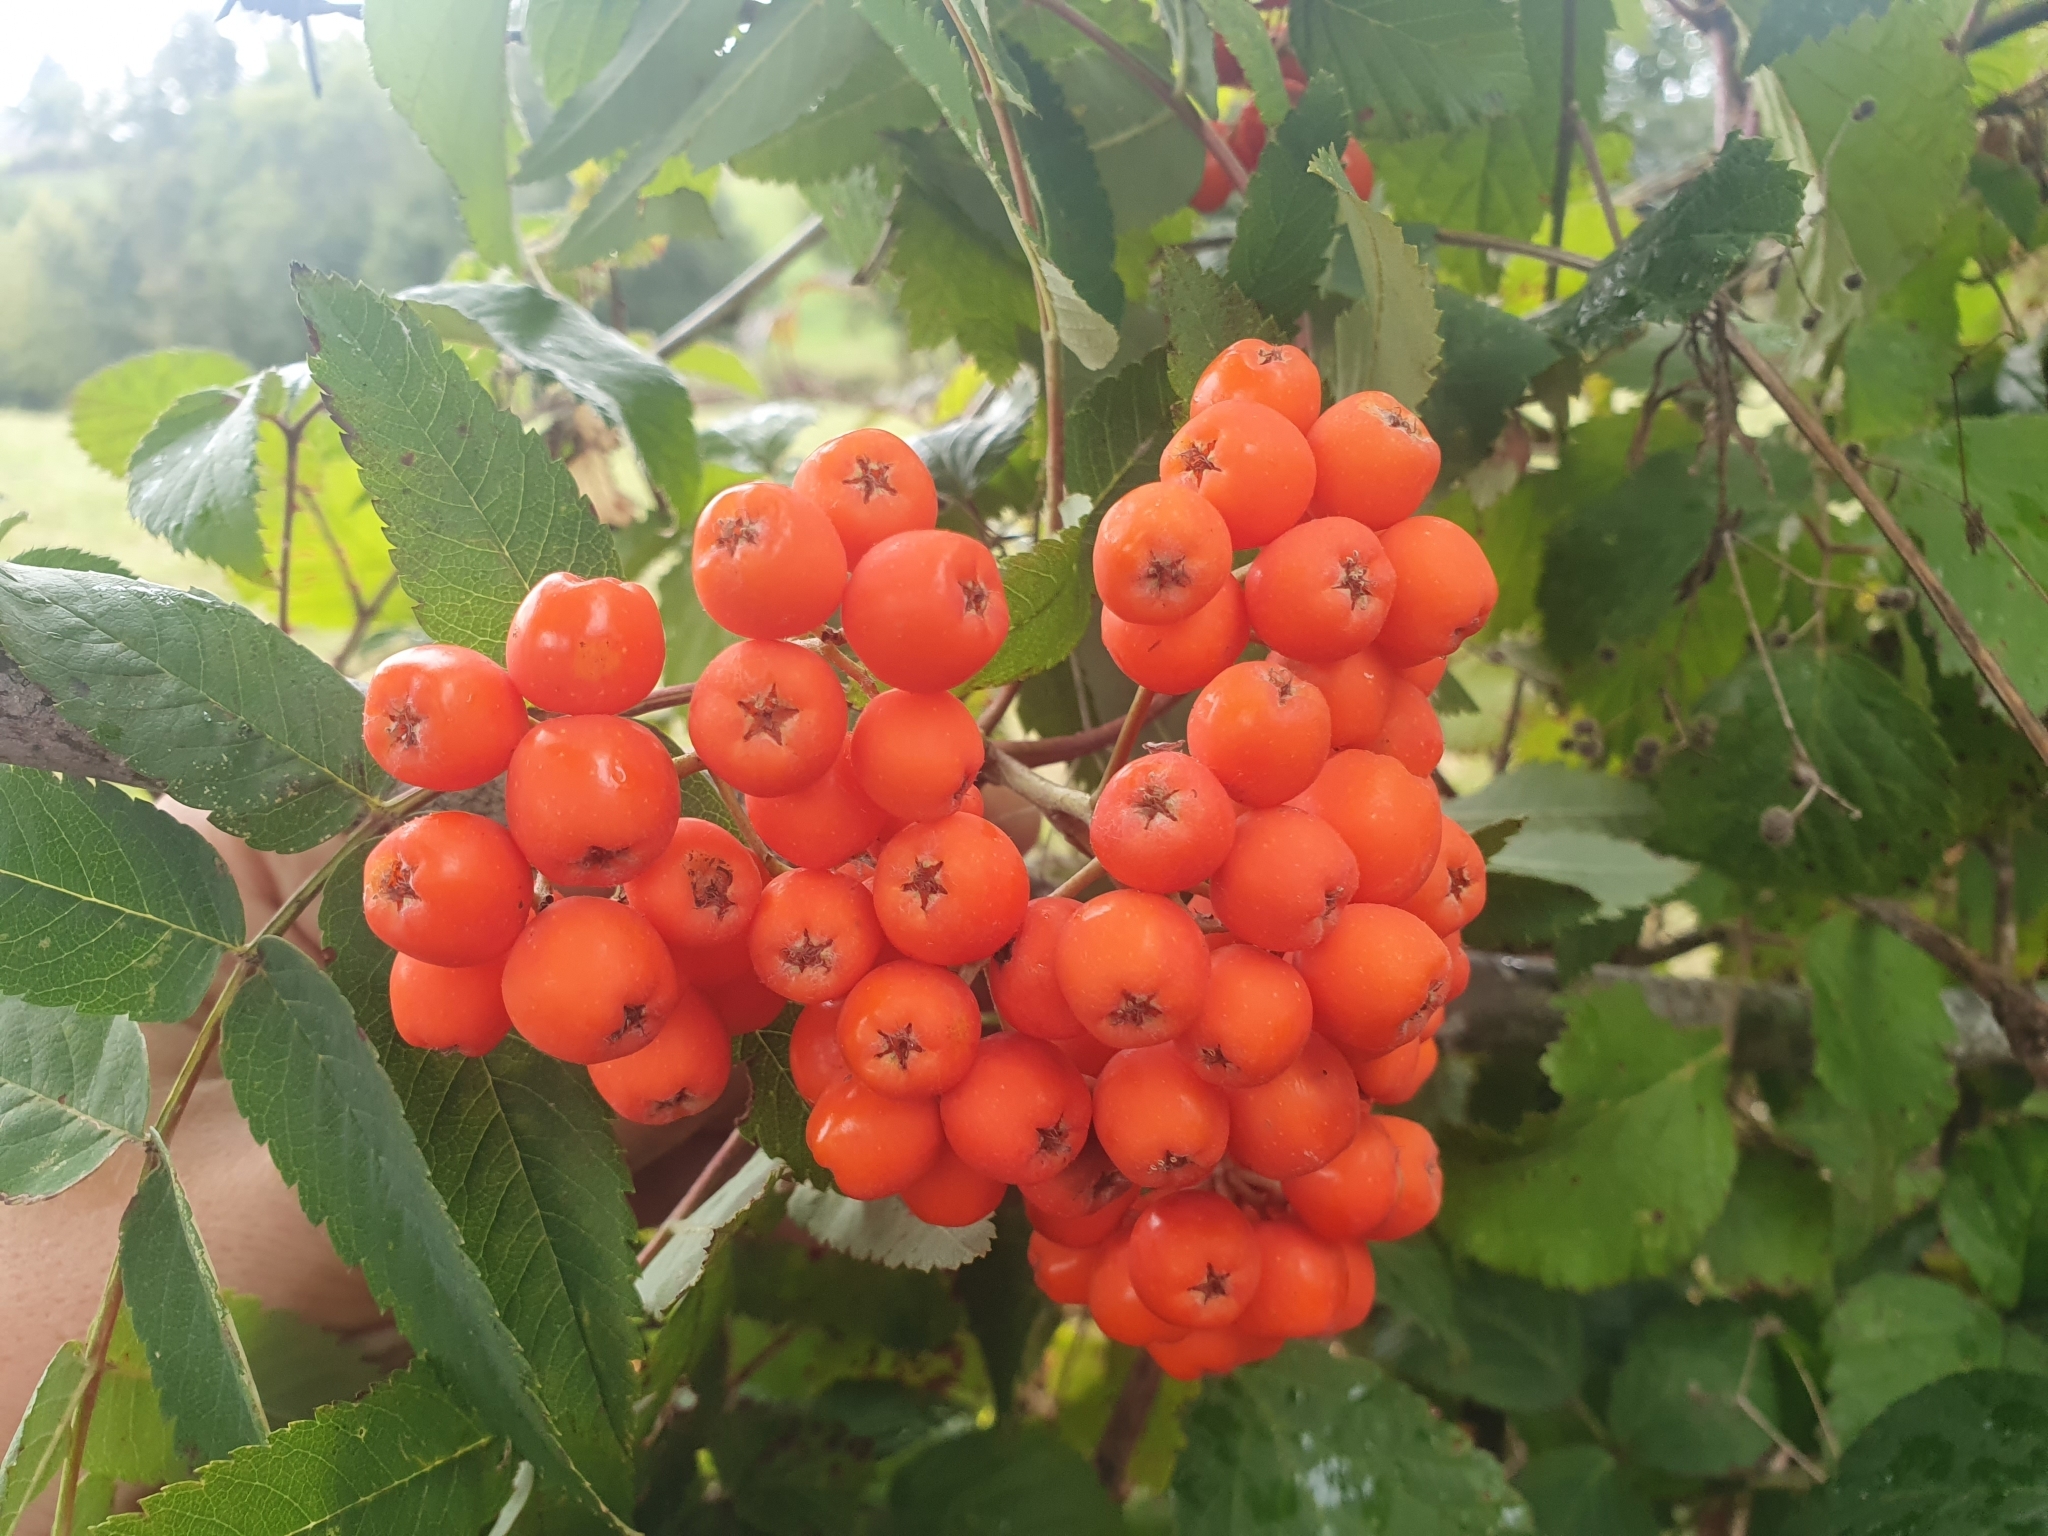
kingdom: Plantae
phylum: Tracheophyta
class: Magnoliopsida
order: Rosales
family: Rosaceae
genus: Sorbus
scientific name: Sorbus aucuparia
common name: Rowan
